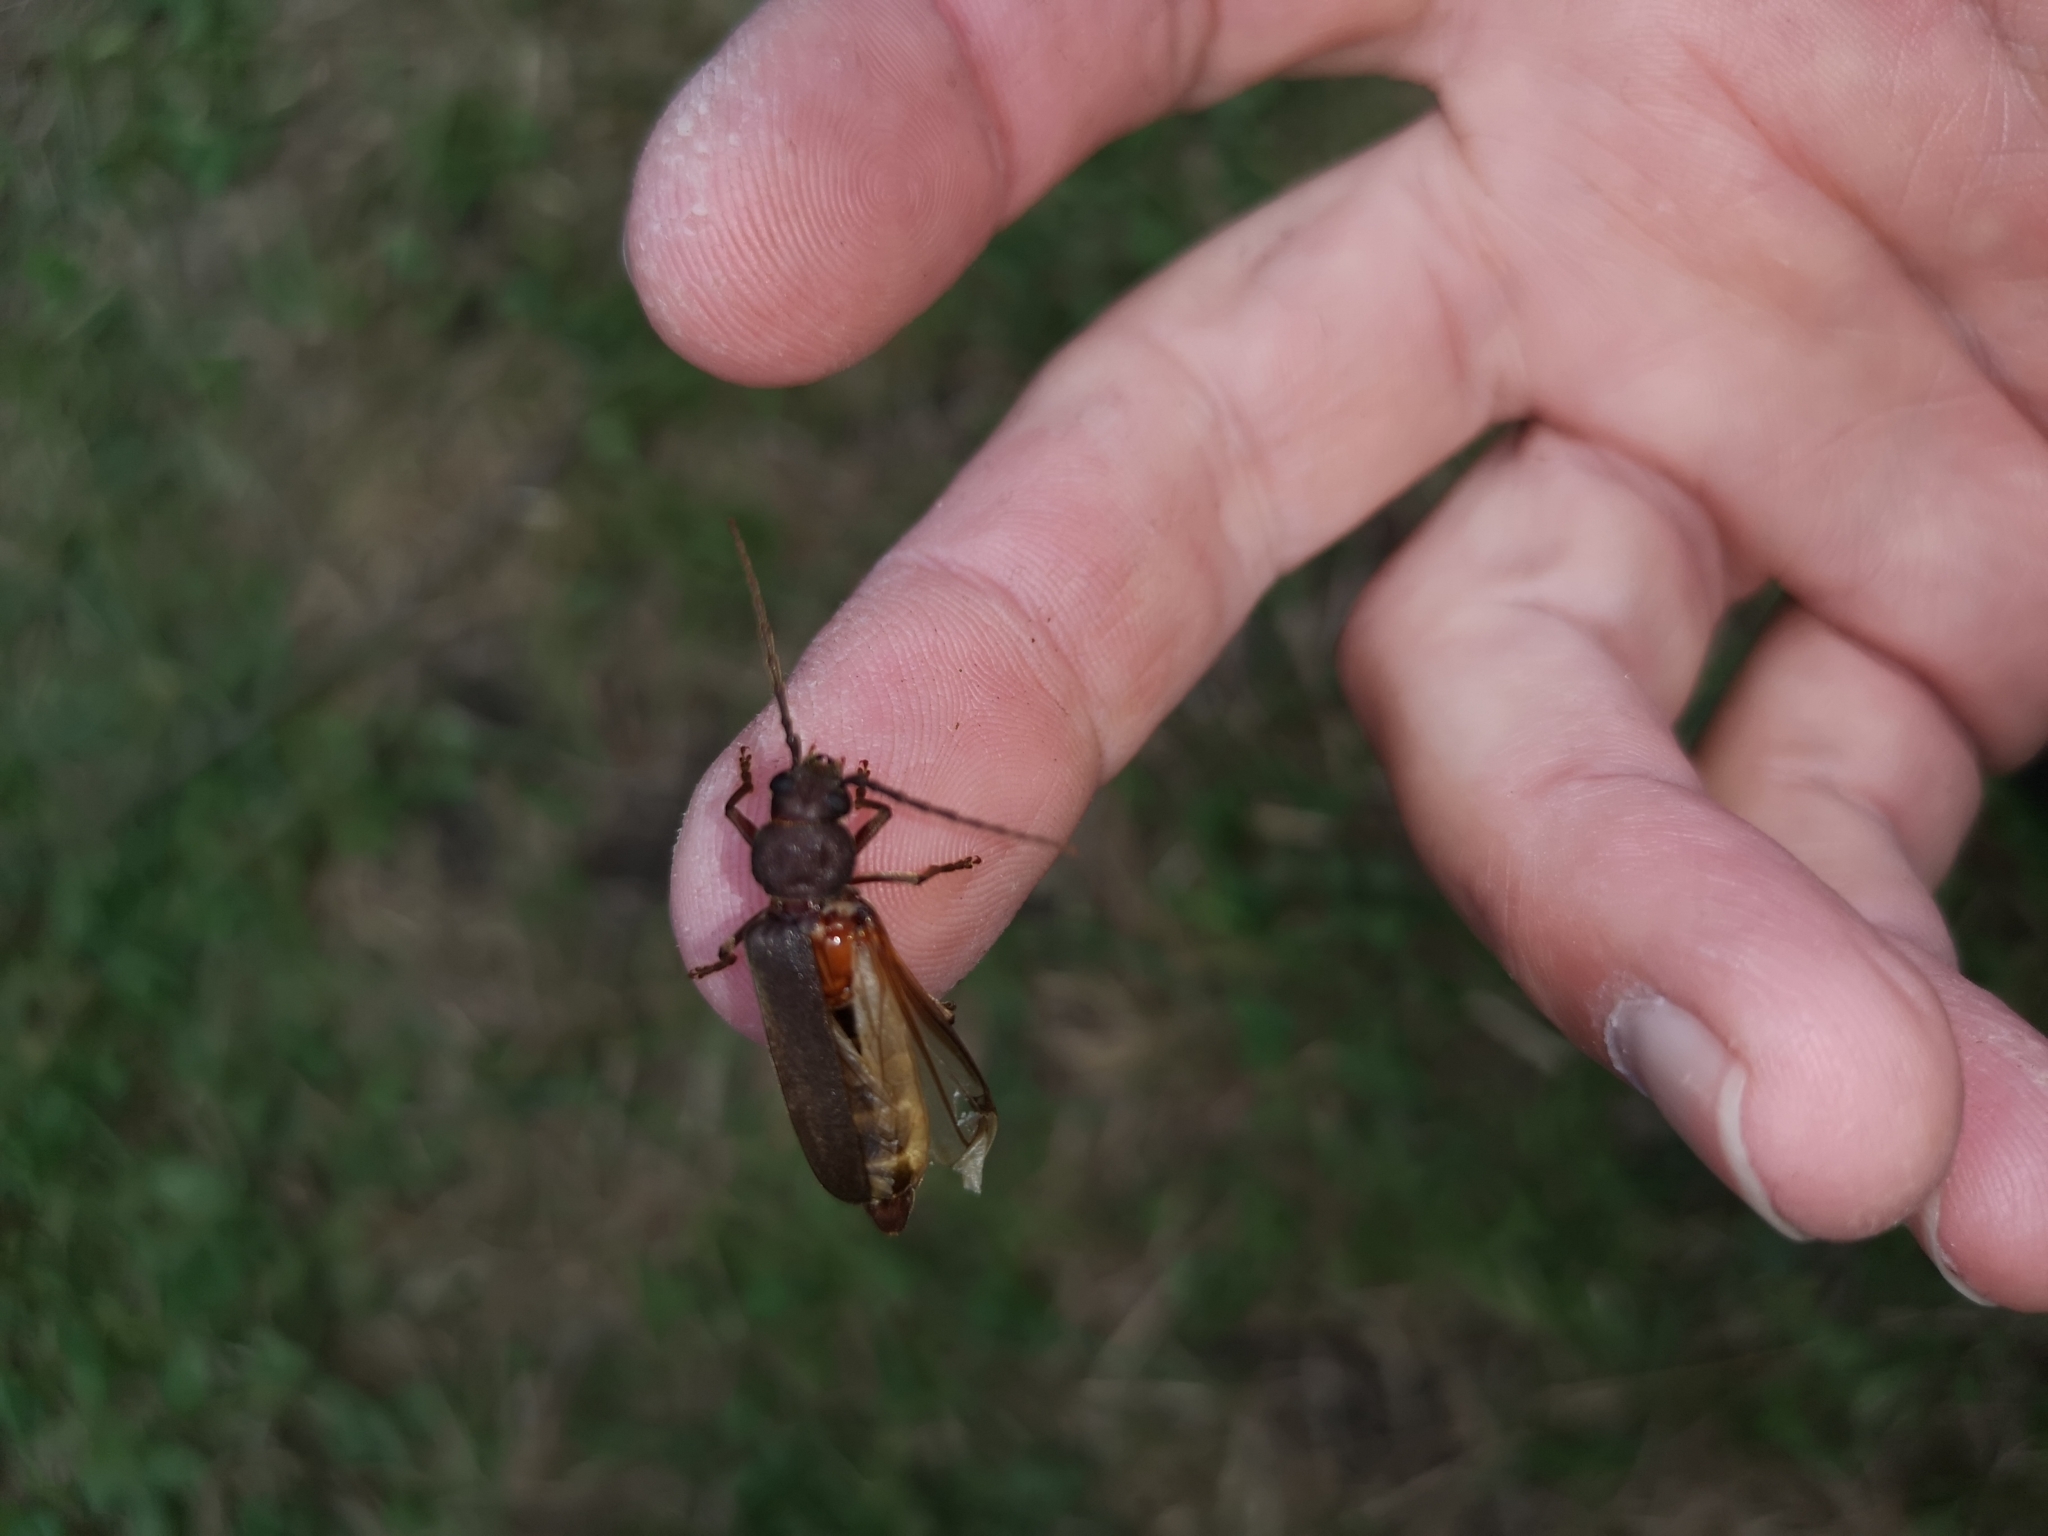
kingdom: Animalia
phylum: Arthropoda
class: Insecta
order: Coleoptera
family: Cerambycidae
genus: Arhopalus
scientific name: Arhopalus rusticus
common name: Rust pine borer
